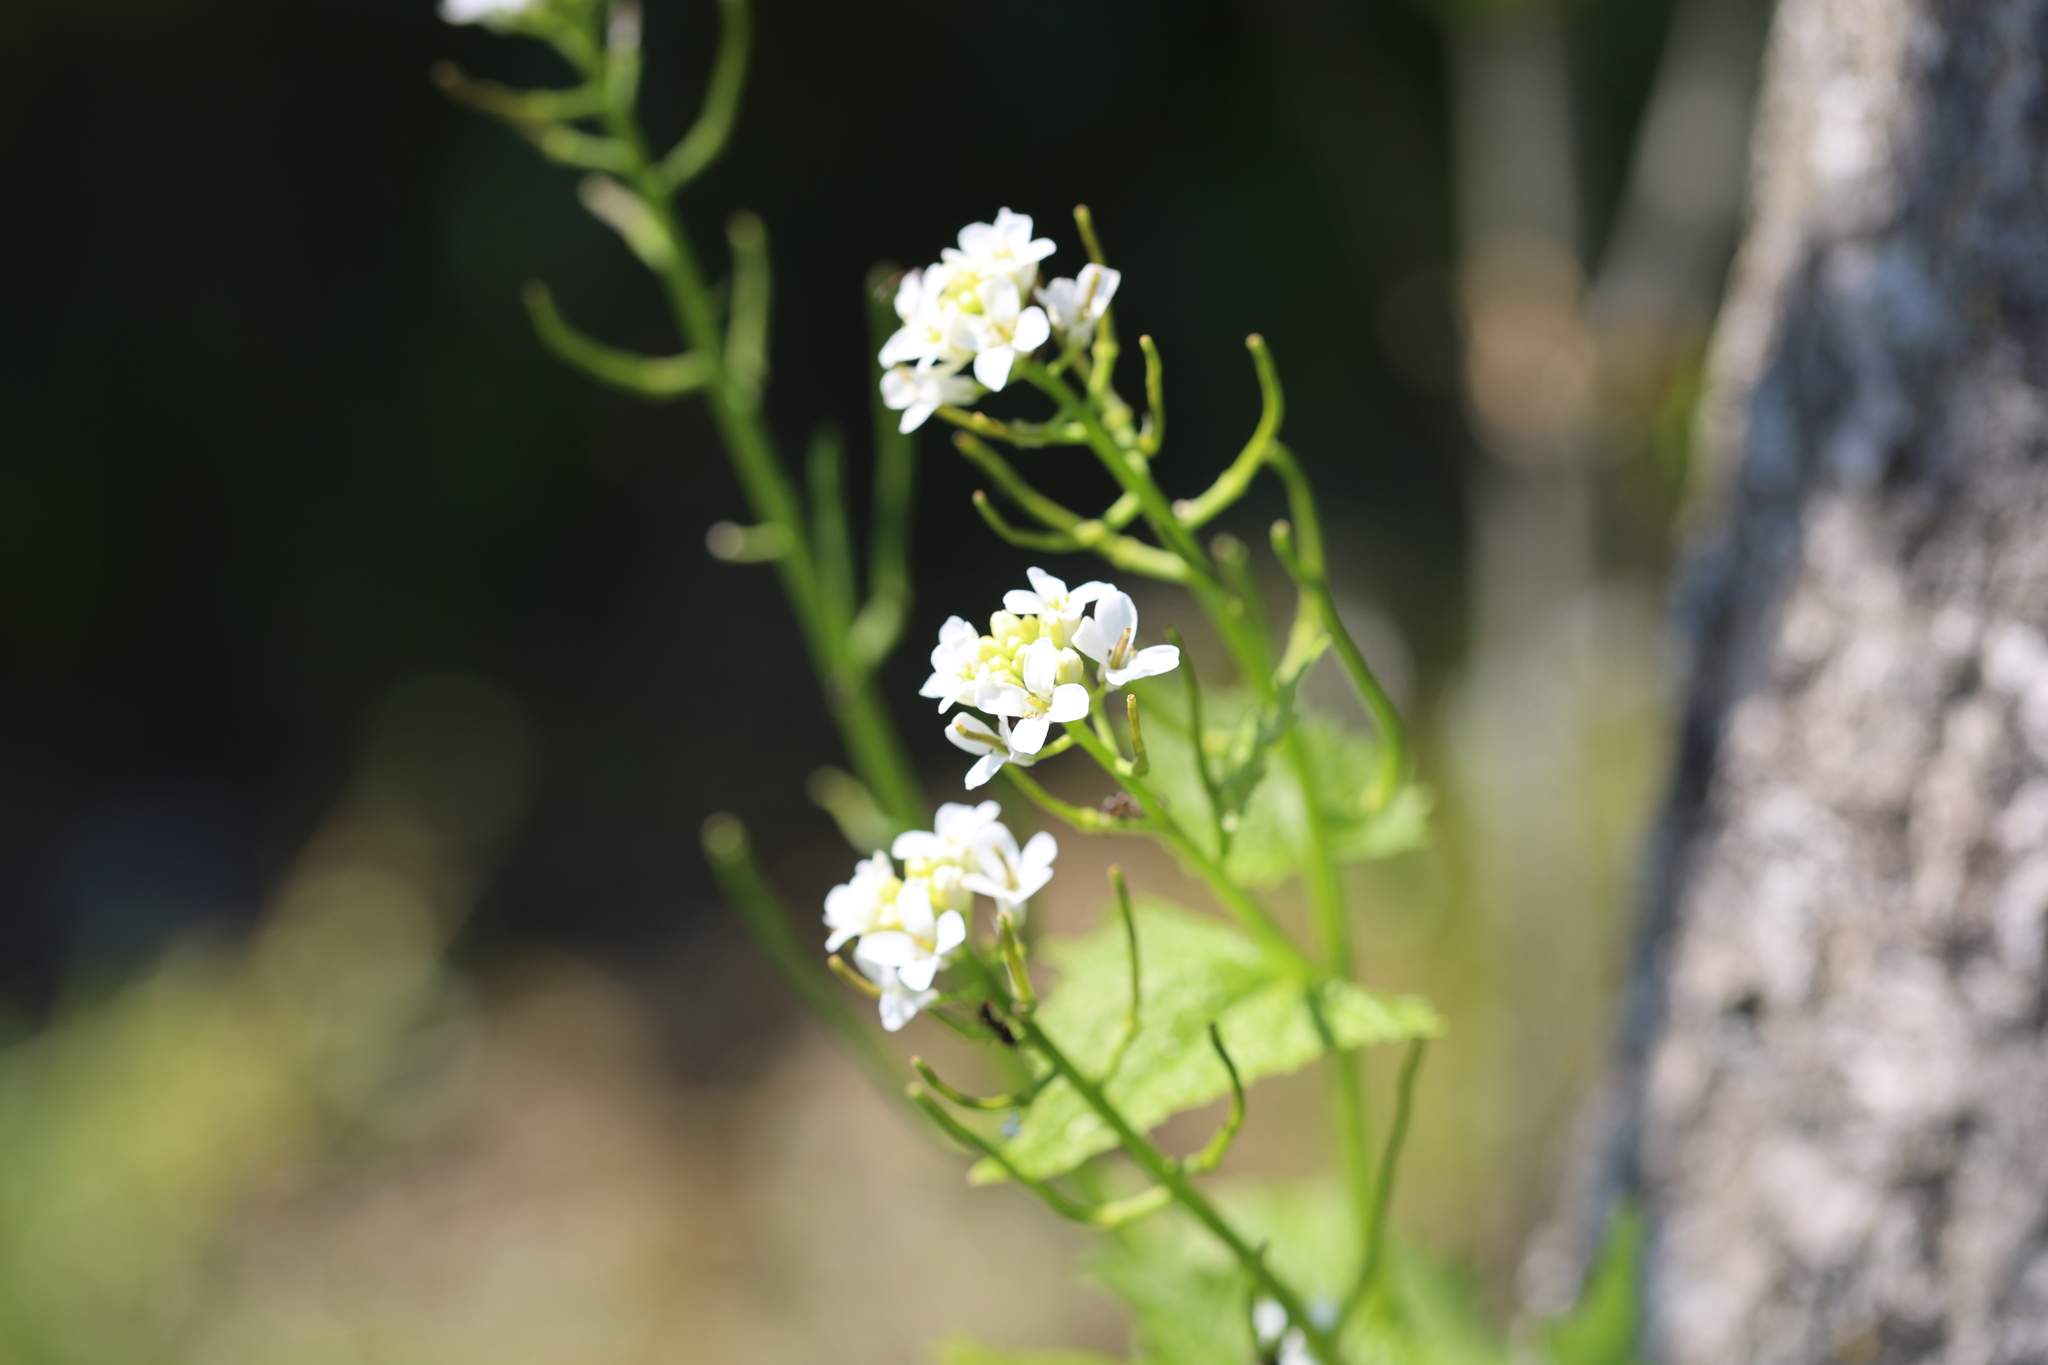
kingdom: Plantae
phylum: Tracheophyta
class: Magnoliopsida
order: Brassicales
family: Brassicaceae
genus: Alliaria
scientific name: Alliaria petiolata
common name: Garlic mustard
